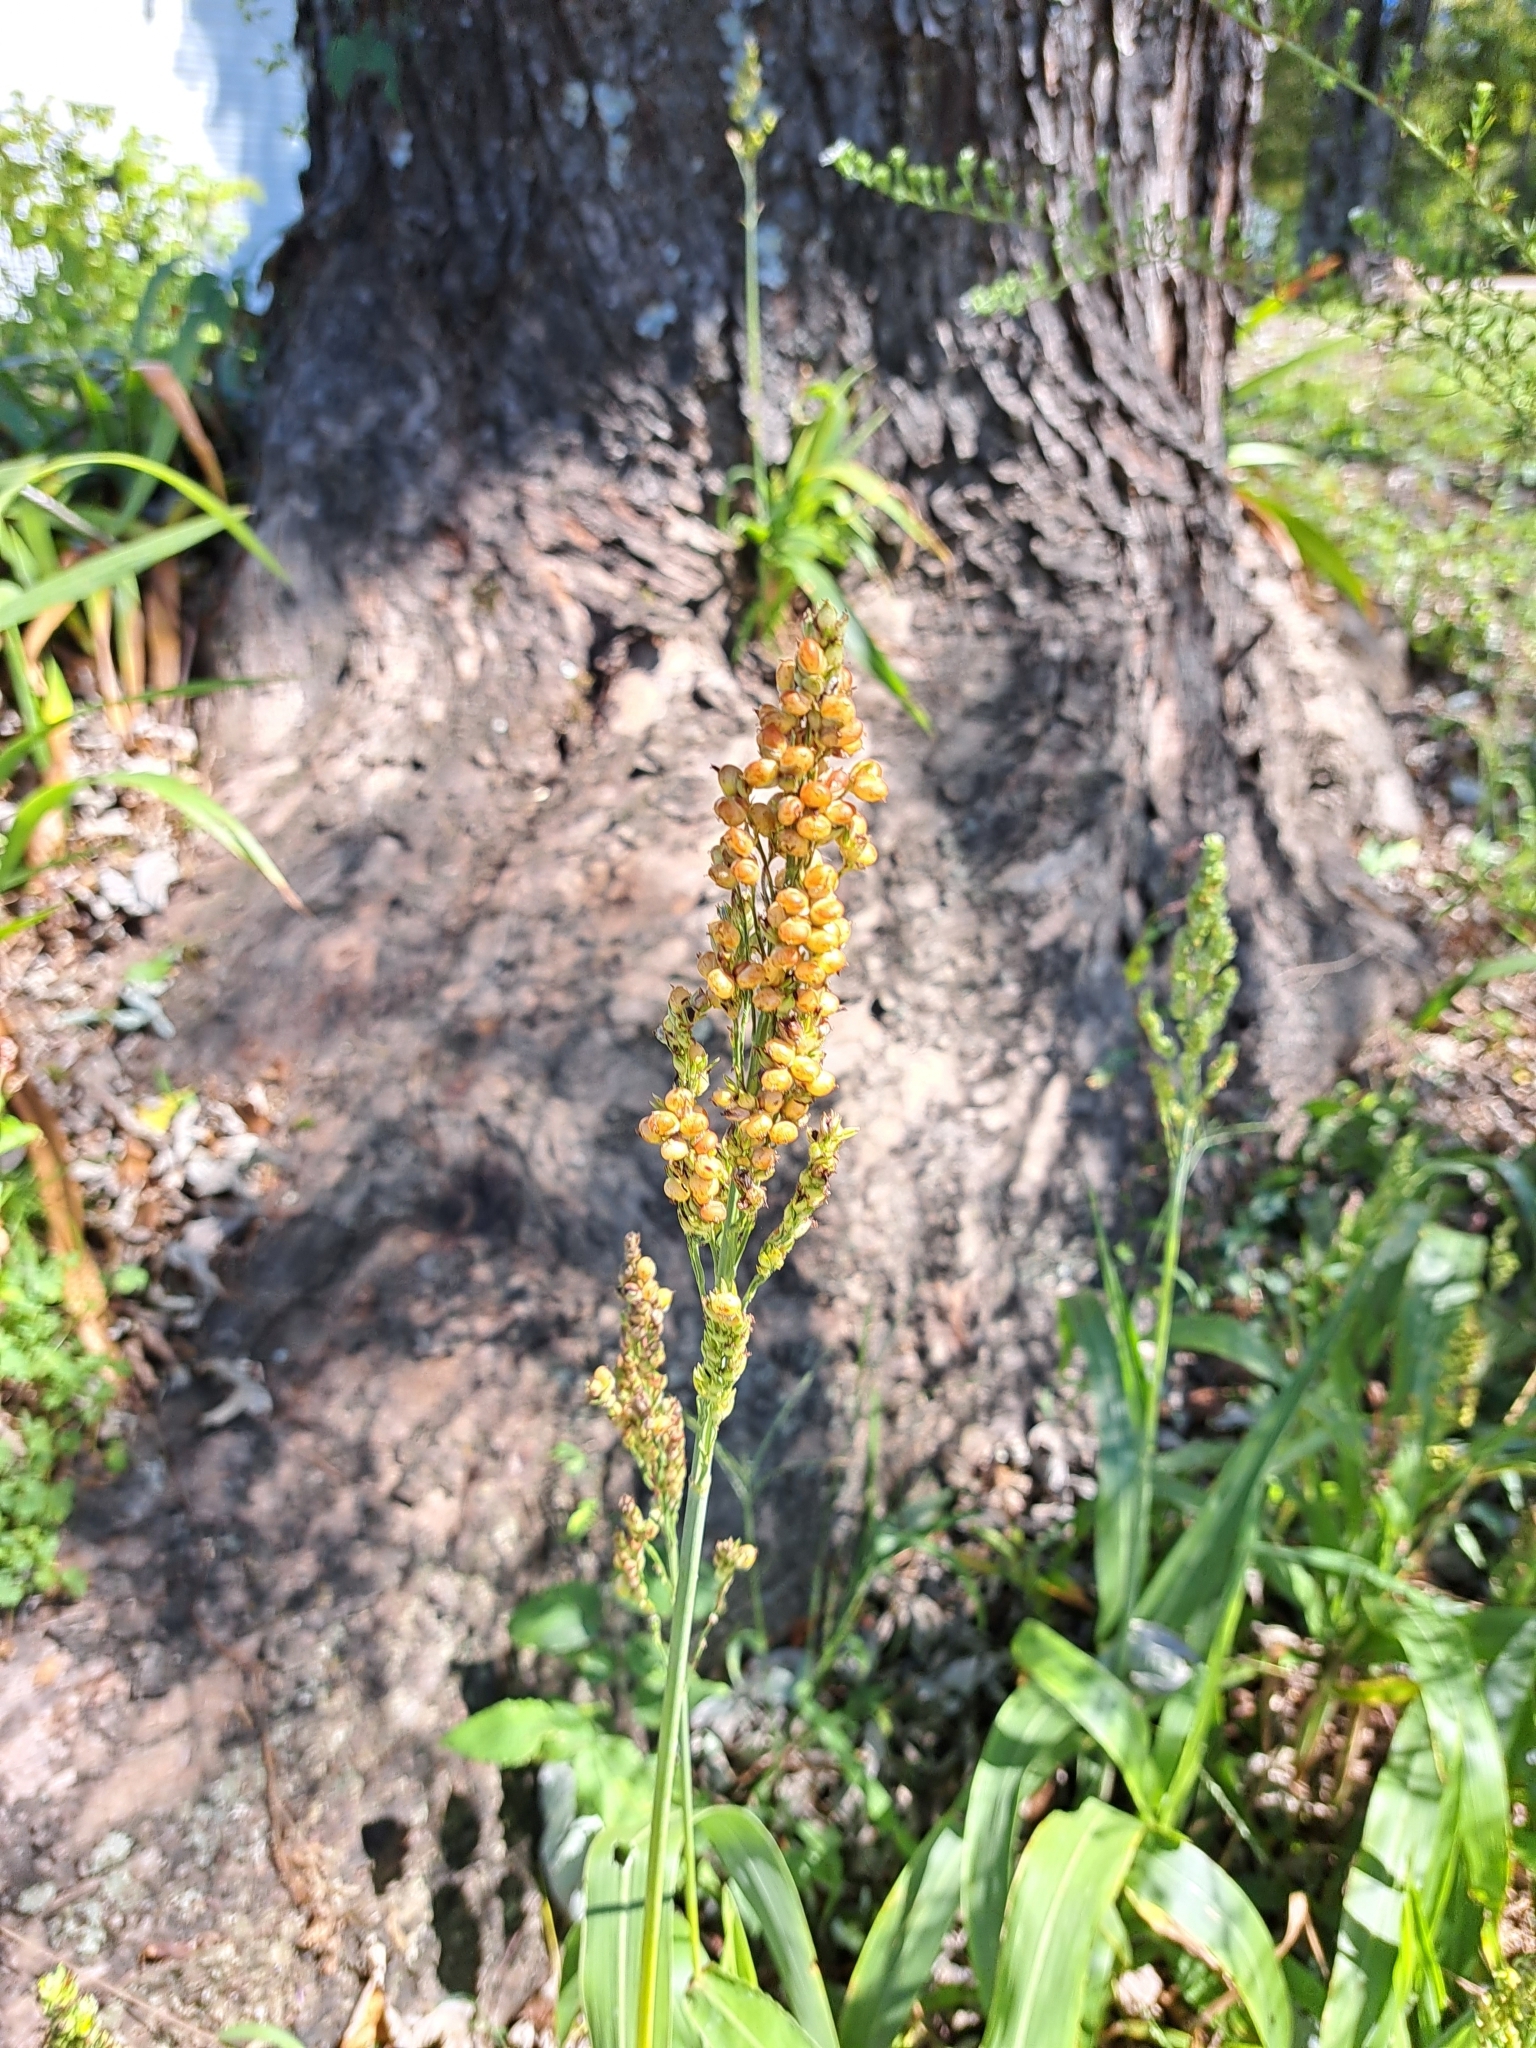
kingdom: Plantae
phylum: Tracheophyta
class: Liliopsida
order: Poales
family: Poaceae
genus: Sorghum
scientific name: Sorghum bicolor
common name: Sorghum
